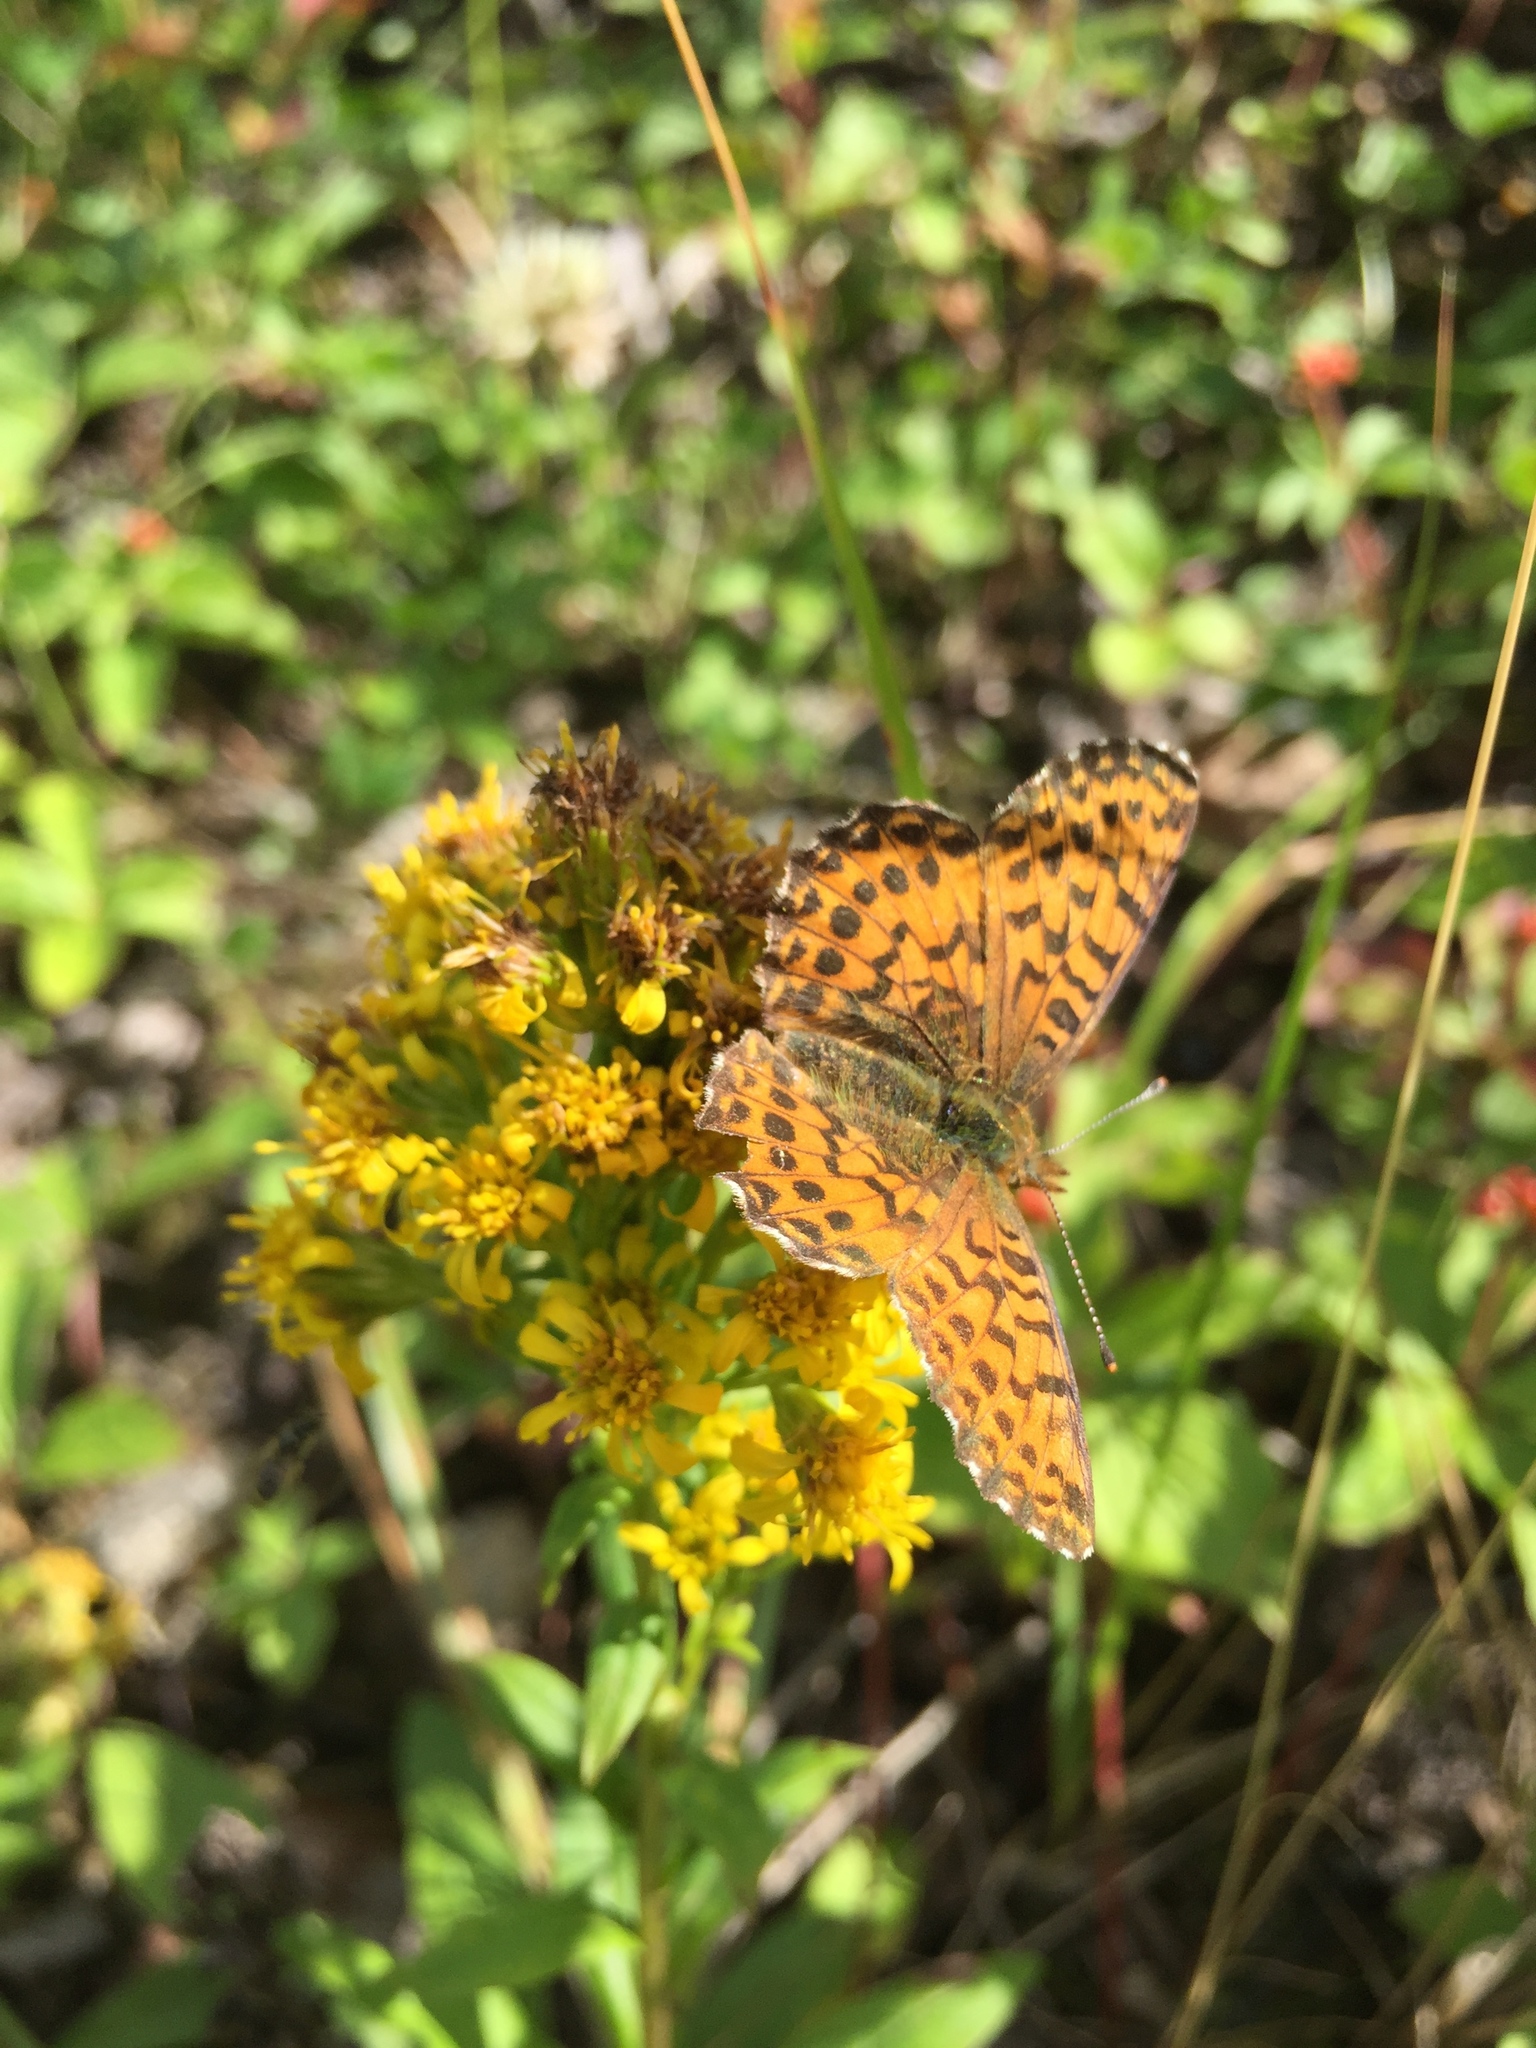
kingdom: Plantae
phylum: Tracheophyta
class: Magnoliopsida
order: Asterales
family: Asteraceae
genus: Solidago
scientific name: Solidago multiradiata
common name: Northern goldenrod
